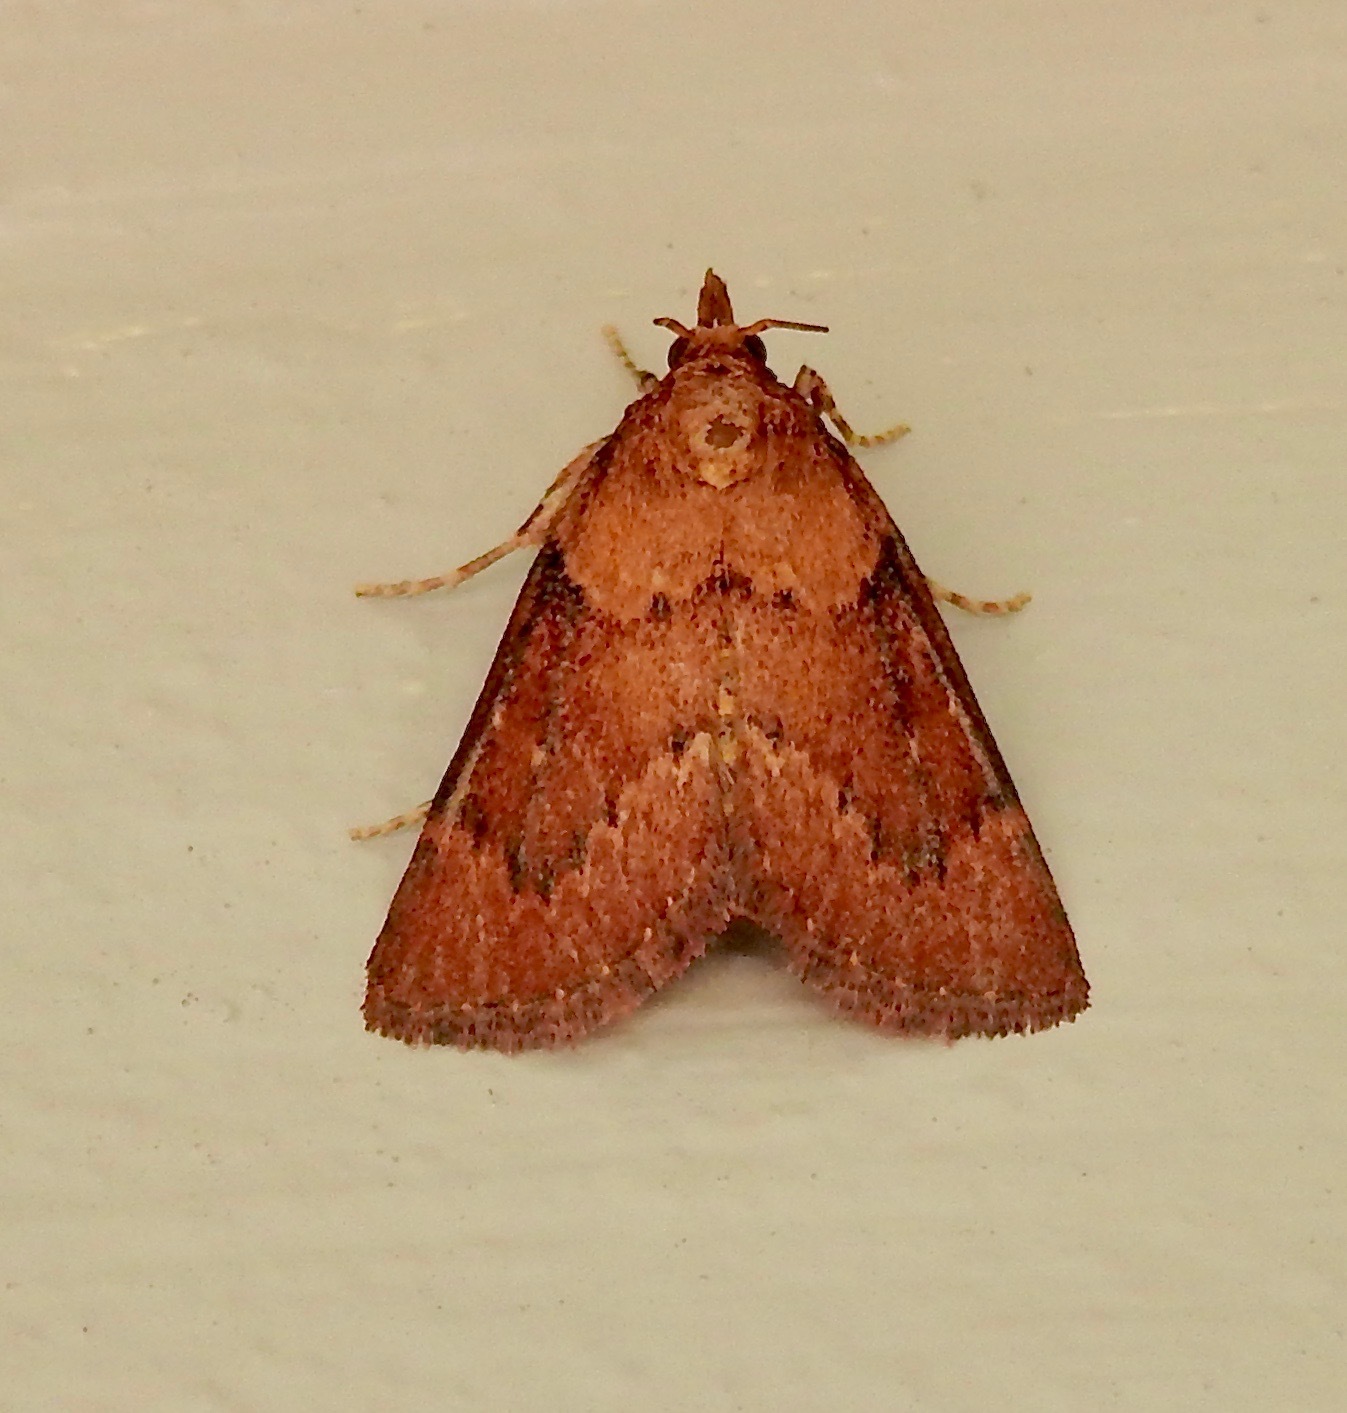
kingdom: Animalia
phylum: Arthropoda
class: Insecta
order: Lepidoptera
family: Pyralidae
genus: Omphalocera
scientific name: Omphalocera munroei
